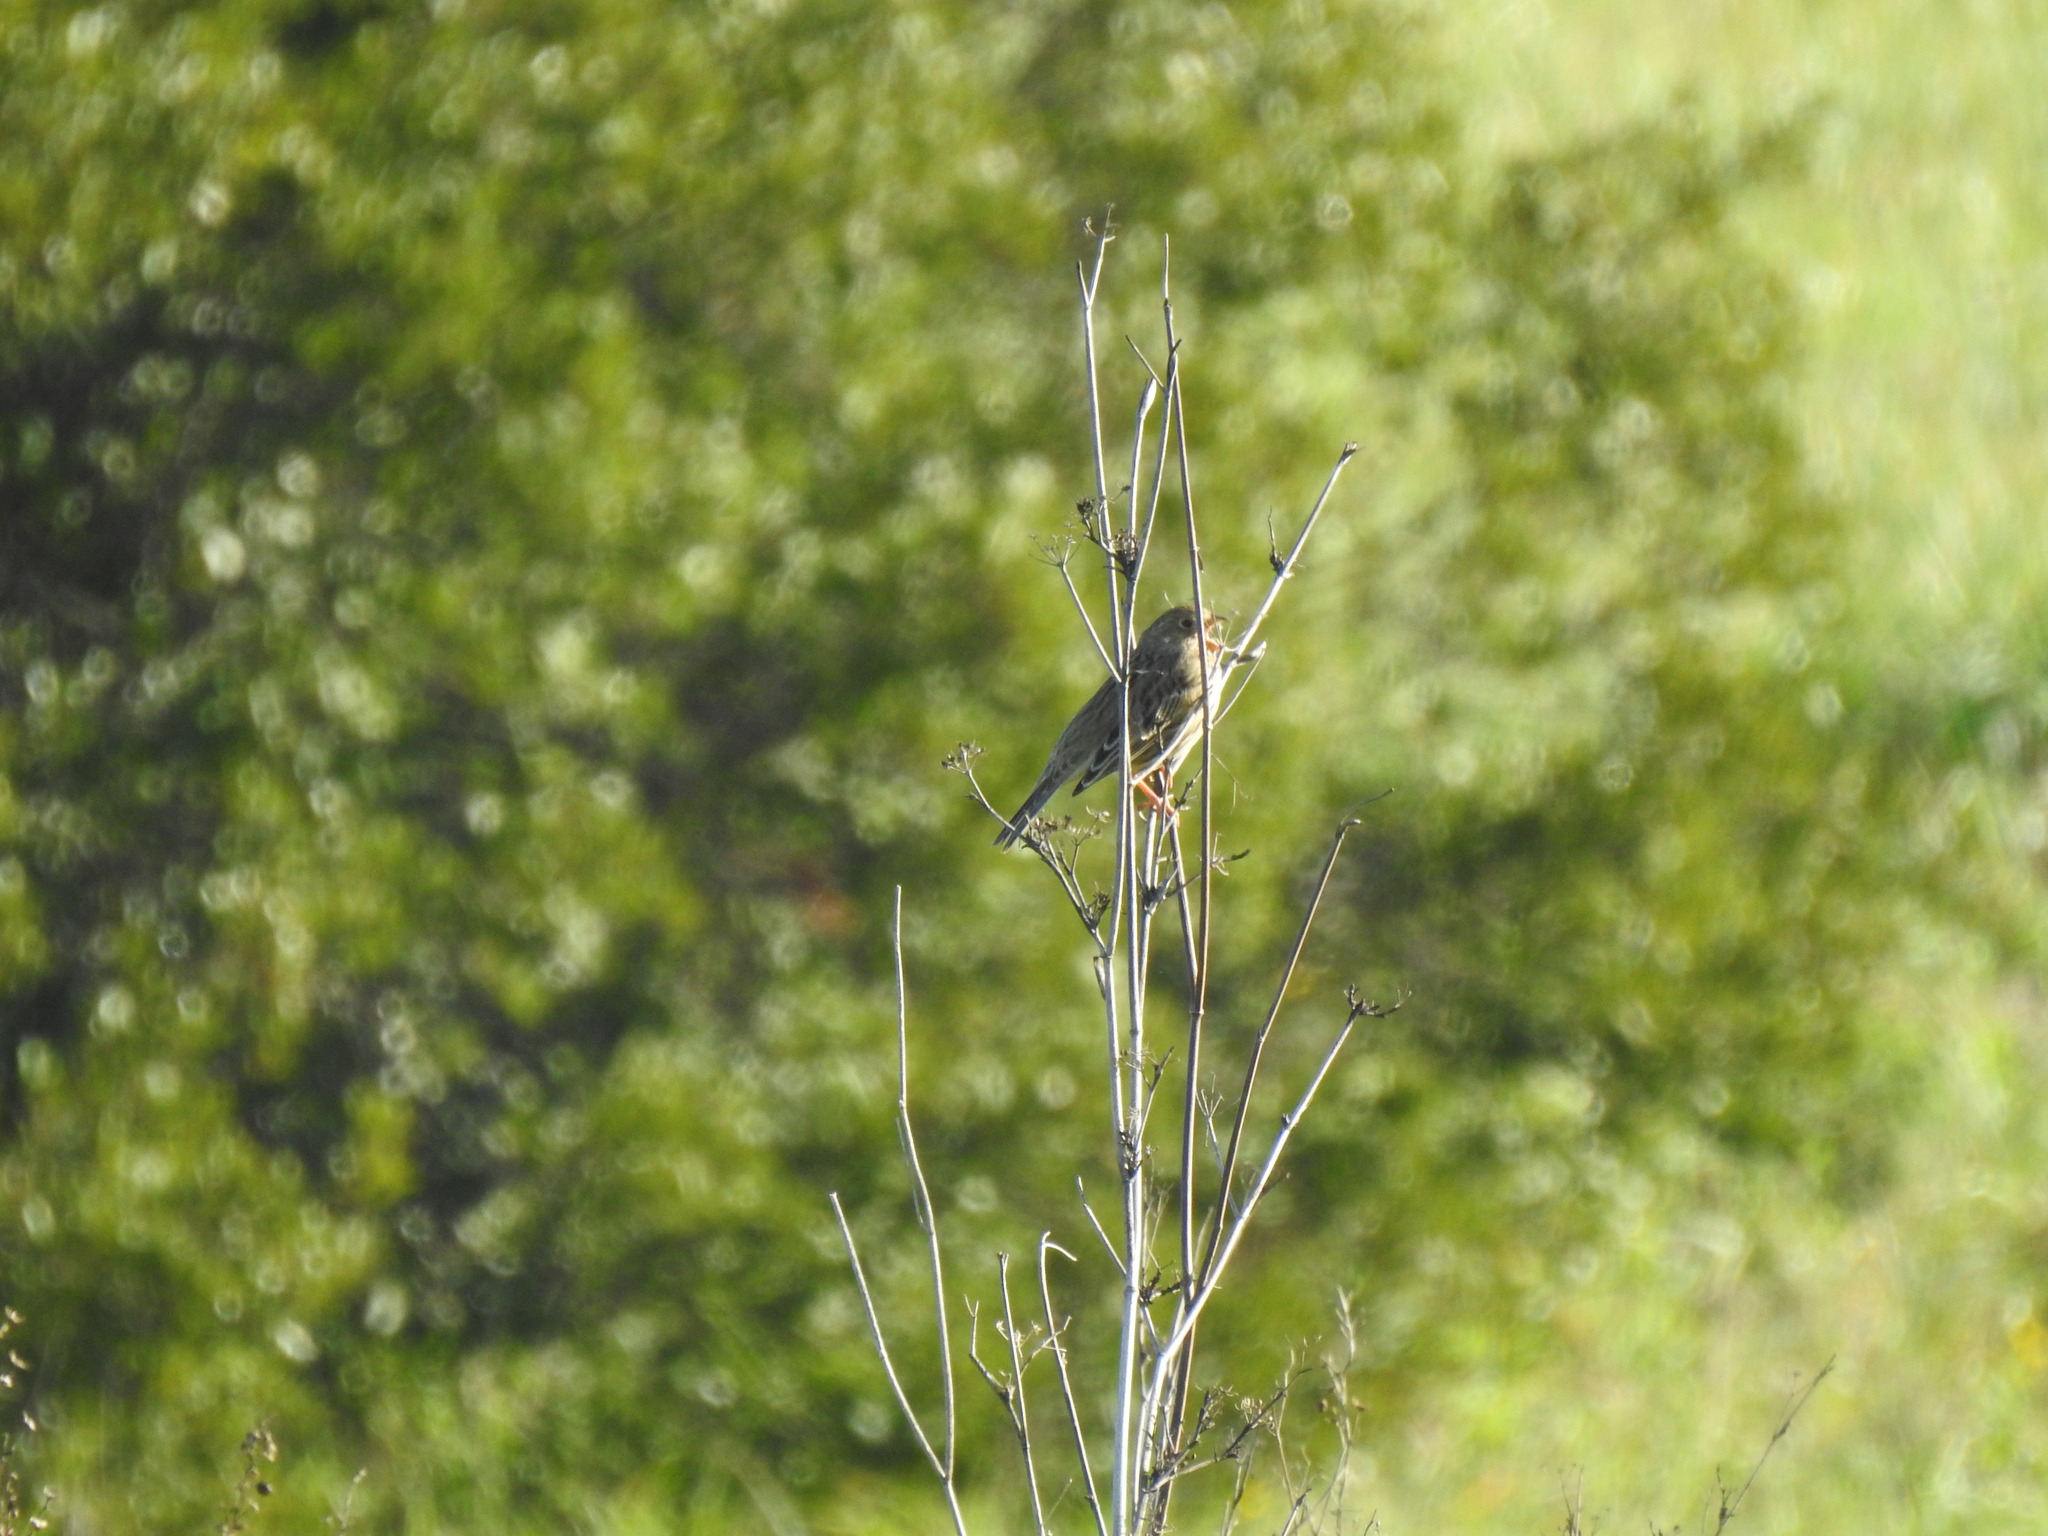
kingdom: Animalia
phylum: Chordata
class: Aves
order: Passeriformes
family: Emberizidae
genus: Emberiza
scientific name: Emberiza calandra
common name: Corn bunting
